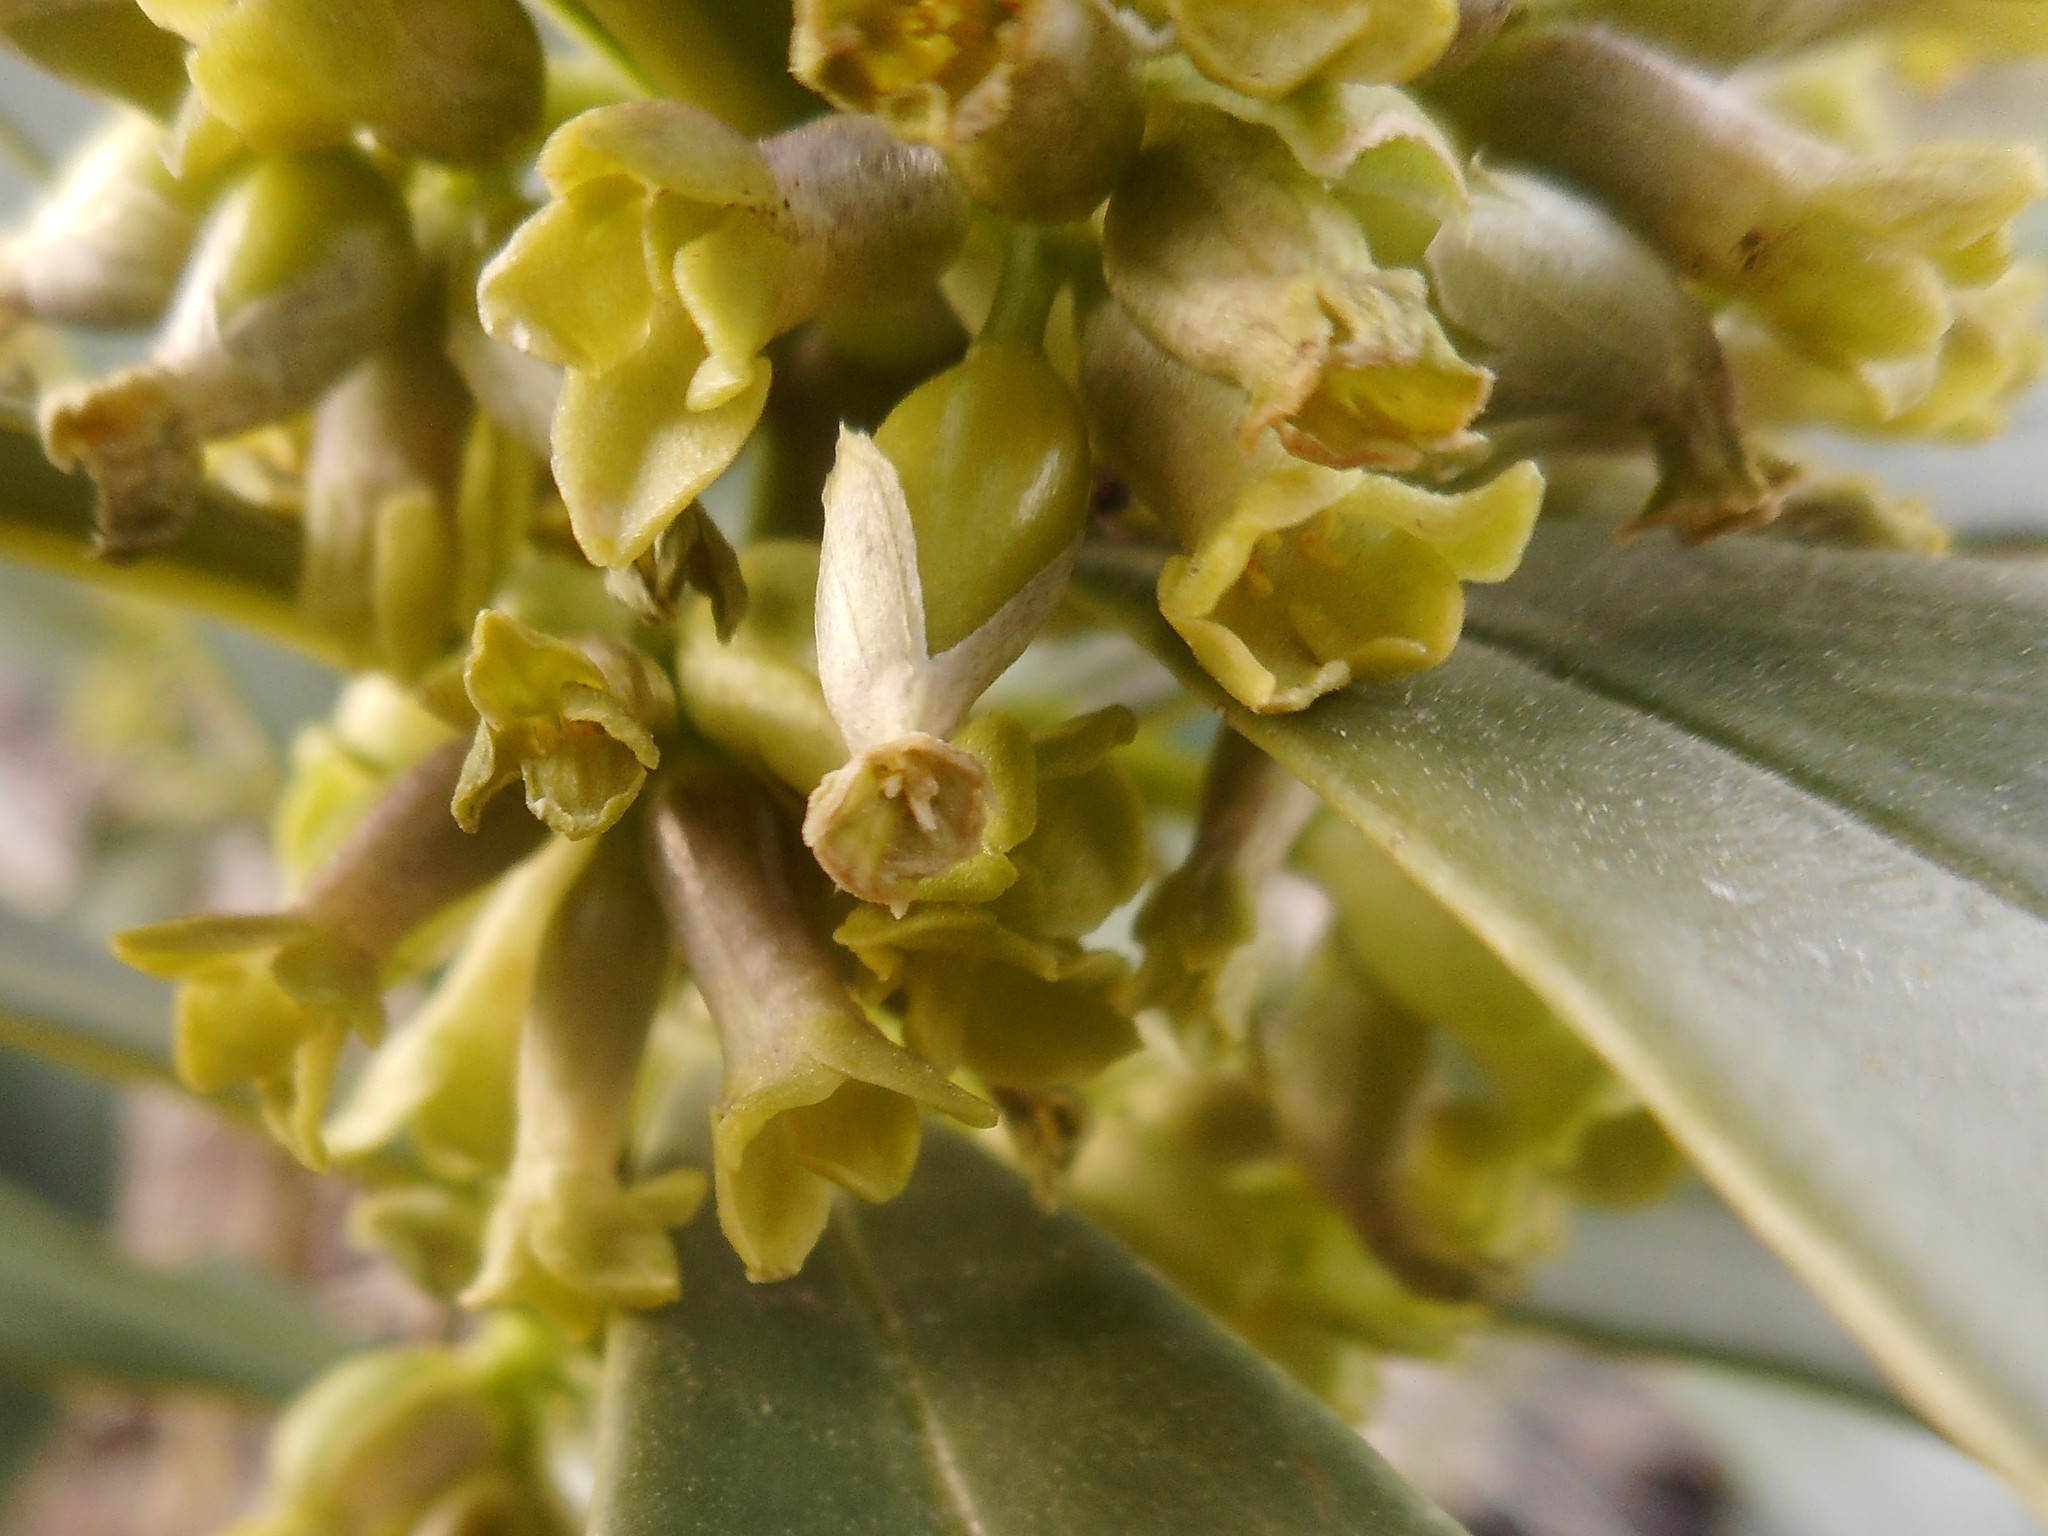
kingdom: Plantae
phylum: Tracheophyta
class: Magnoliopsida
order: Malvales
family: Thymelaeaceae
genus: Daphne
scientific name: Daphne laureola
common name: Spurge-laurel
